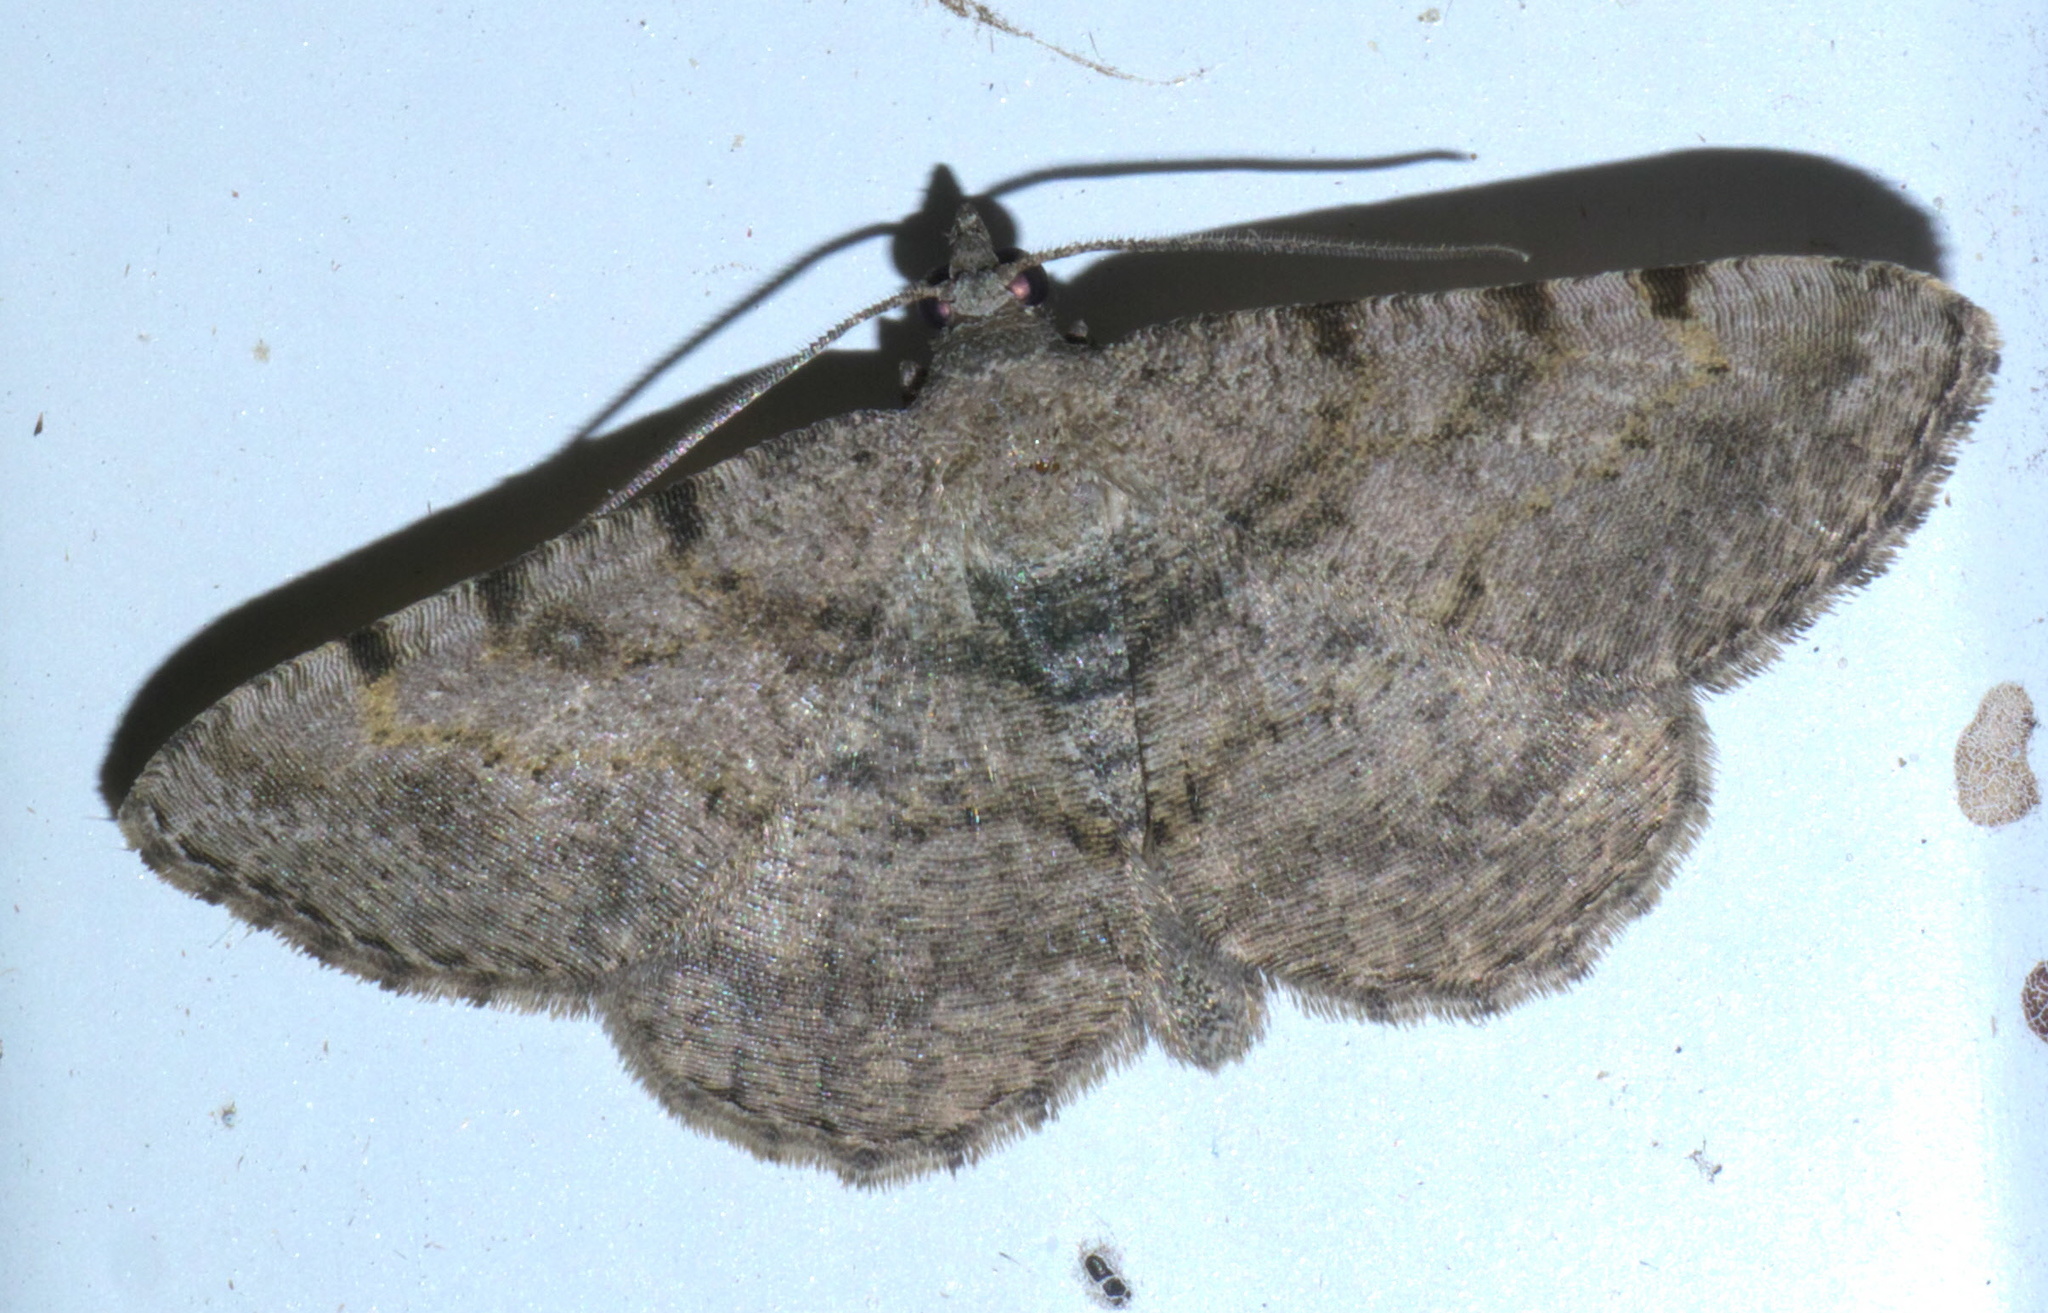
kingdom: Animalia
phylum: Arthropoda
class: Insecta
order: Lepidoptera
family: Geometridae
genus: Digrammia
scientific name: Digrammia gnophosaria
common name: Hollow-spotted angle
